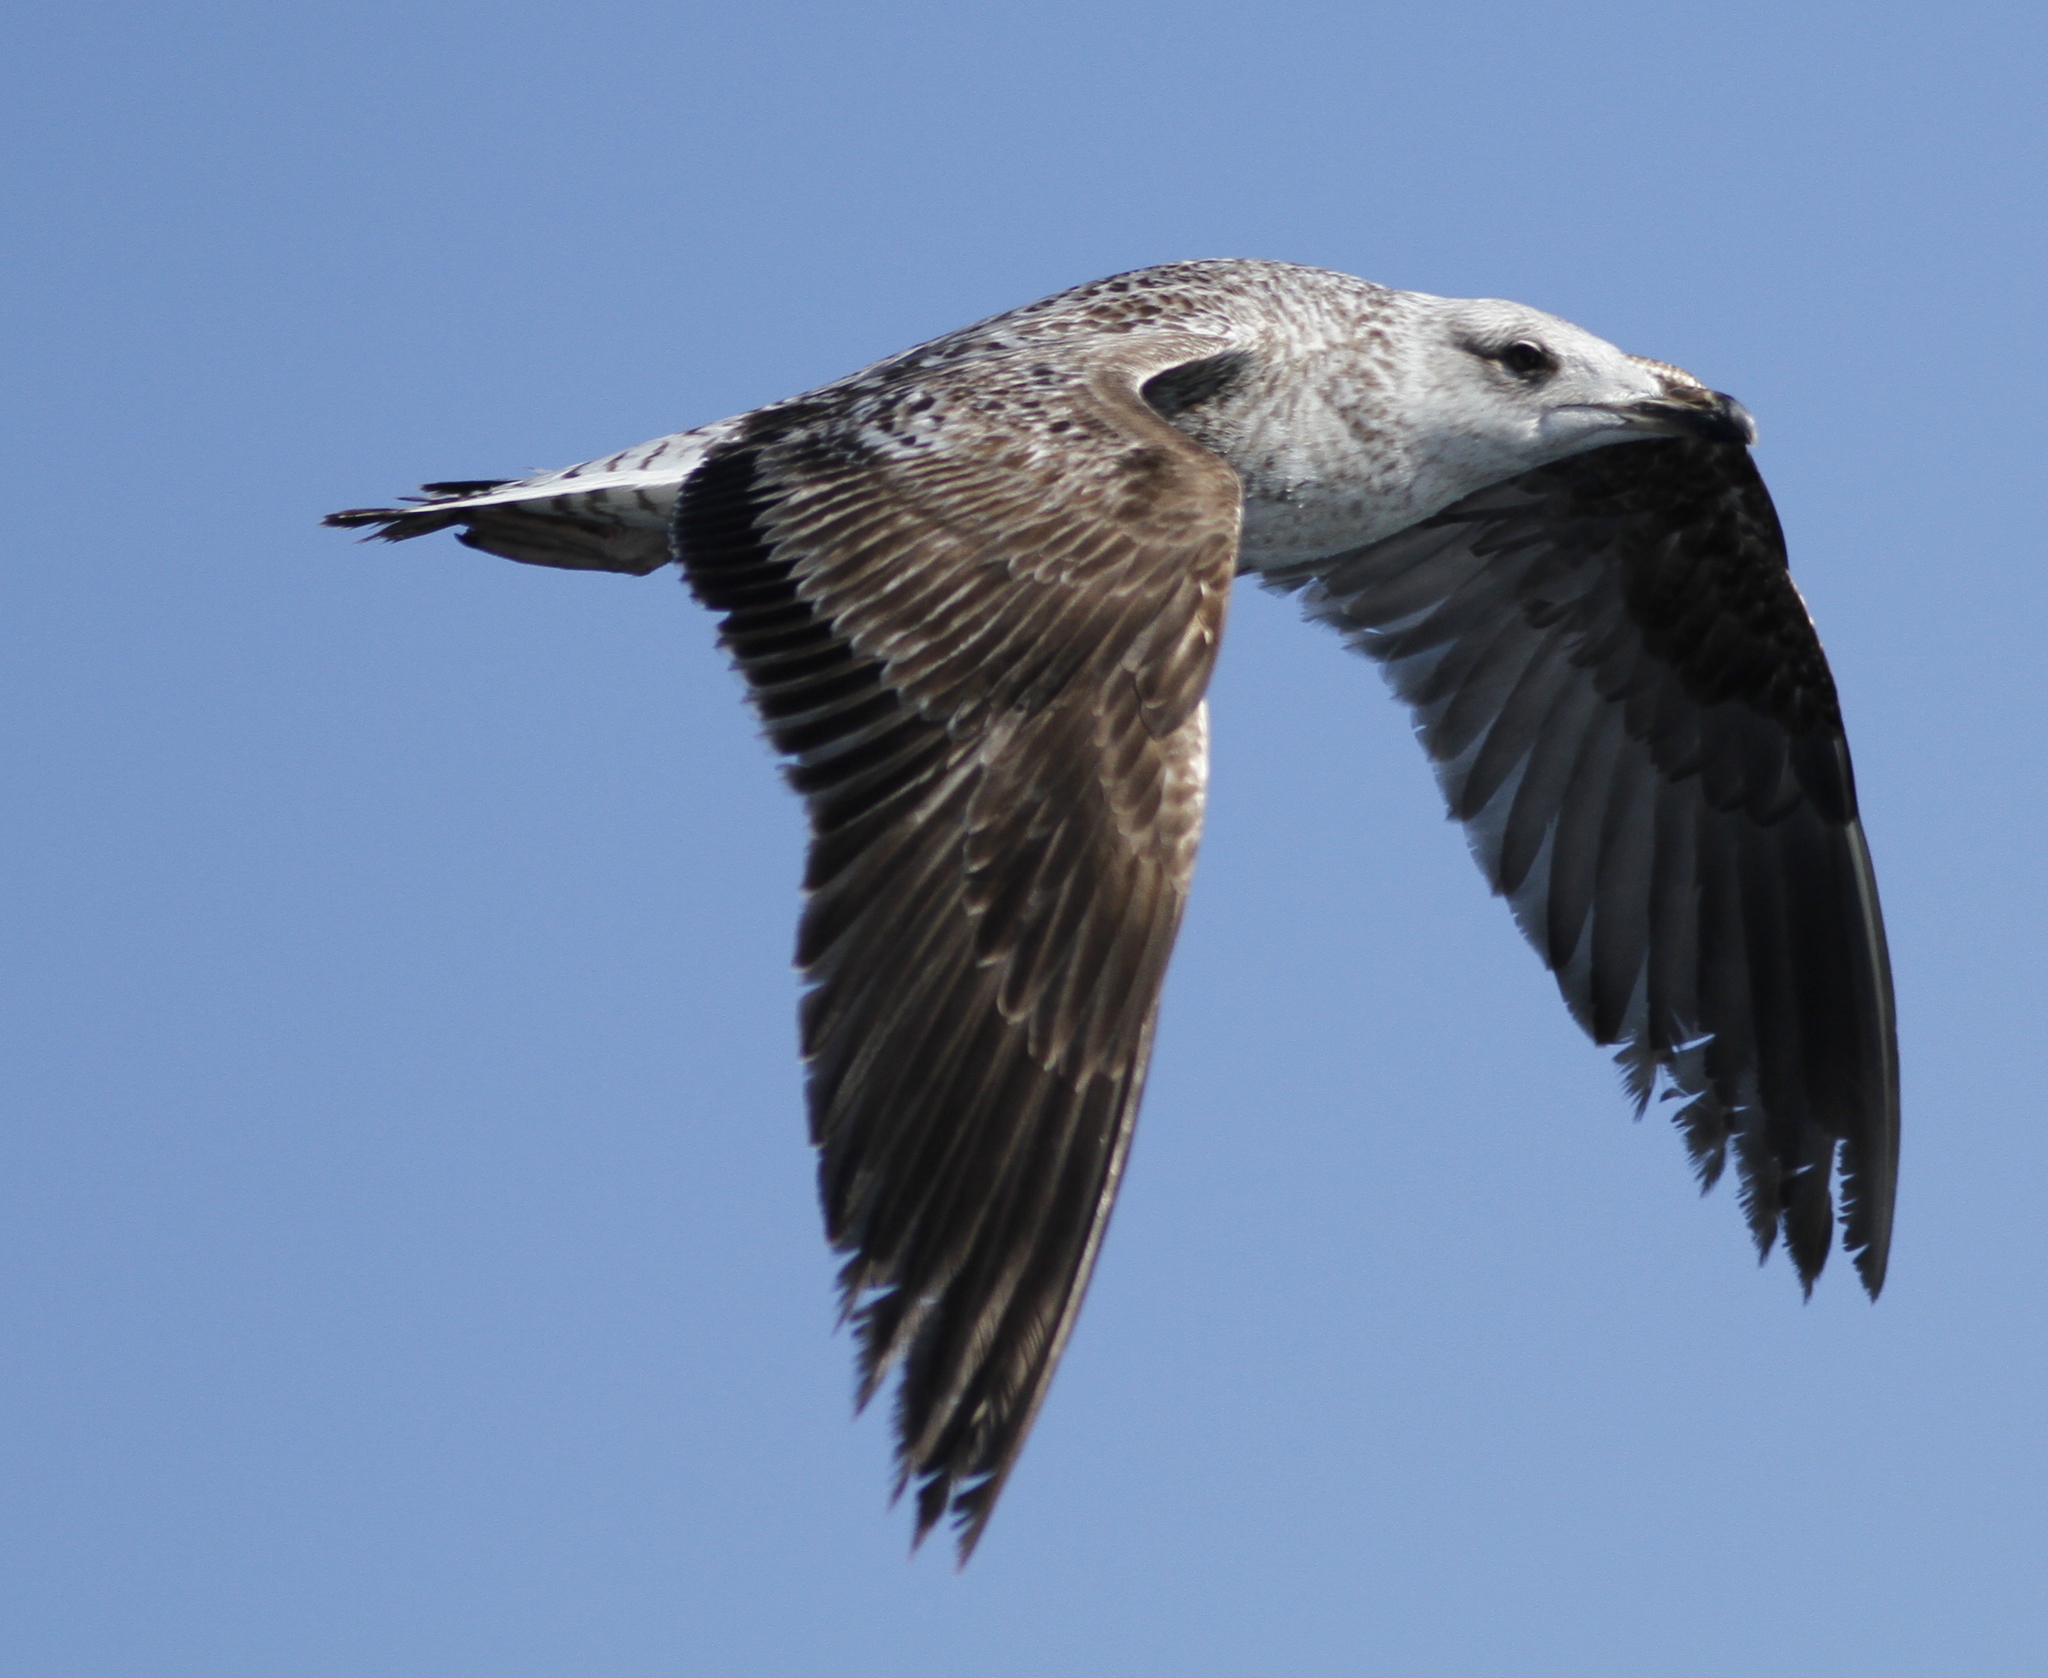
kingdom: Animalia
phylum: Chordata
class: Aves
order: Charadriiformes
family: Laridae
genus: Larus
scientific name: Larus michahellis
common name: Yellow-legged gull
